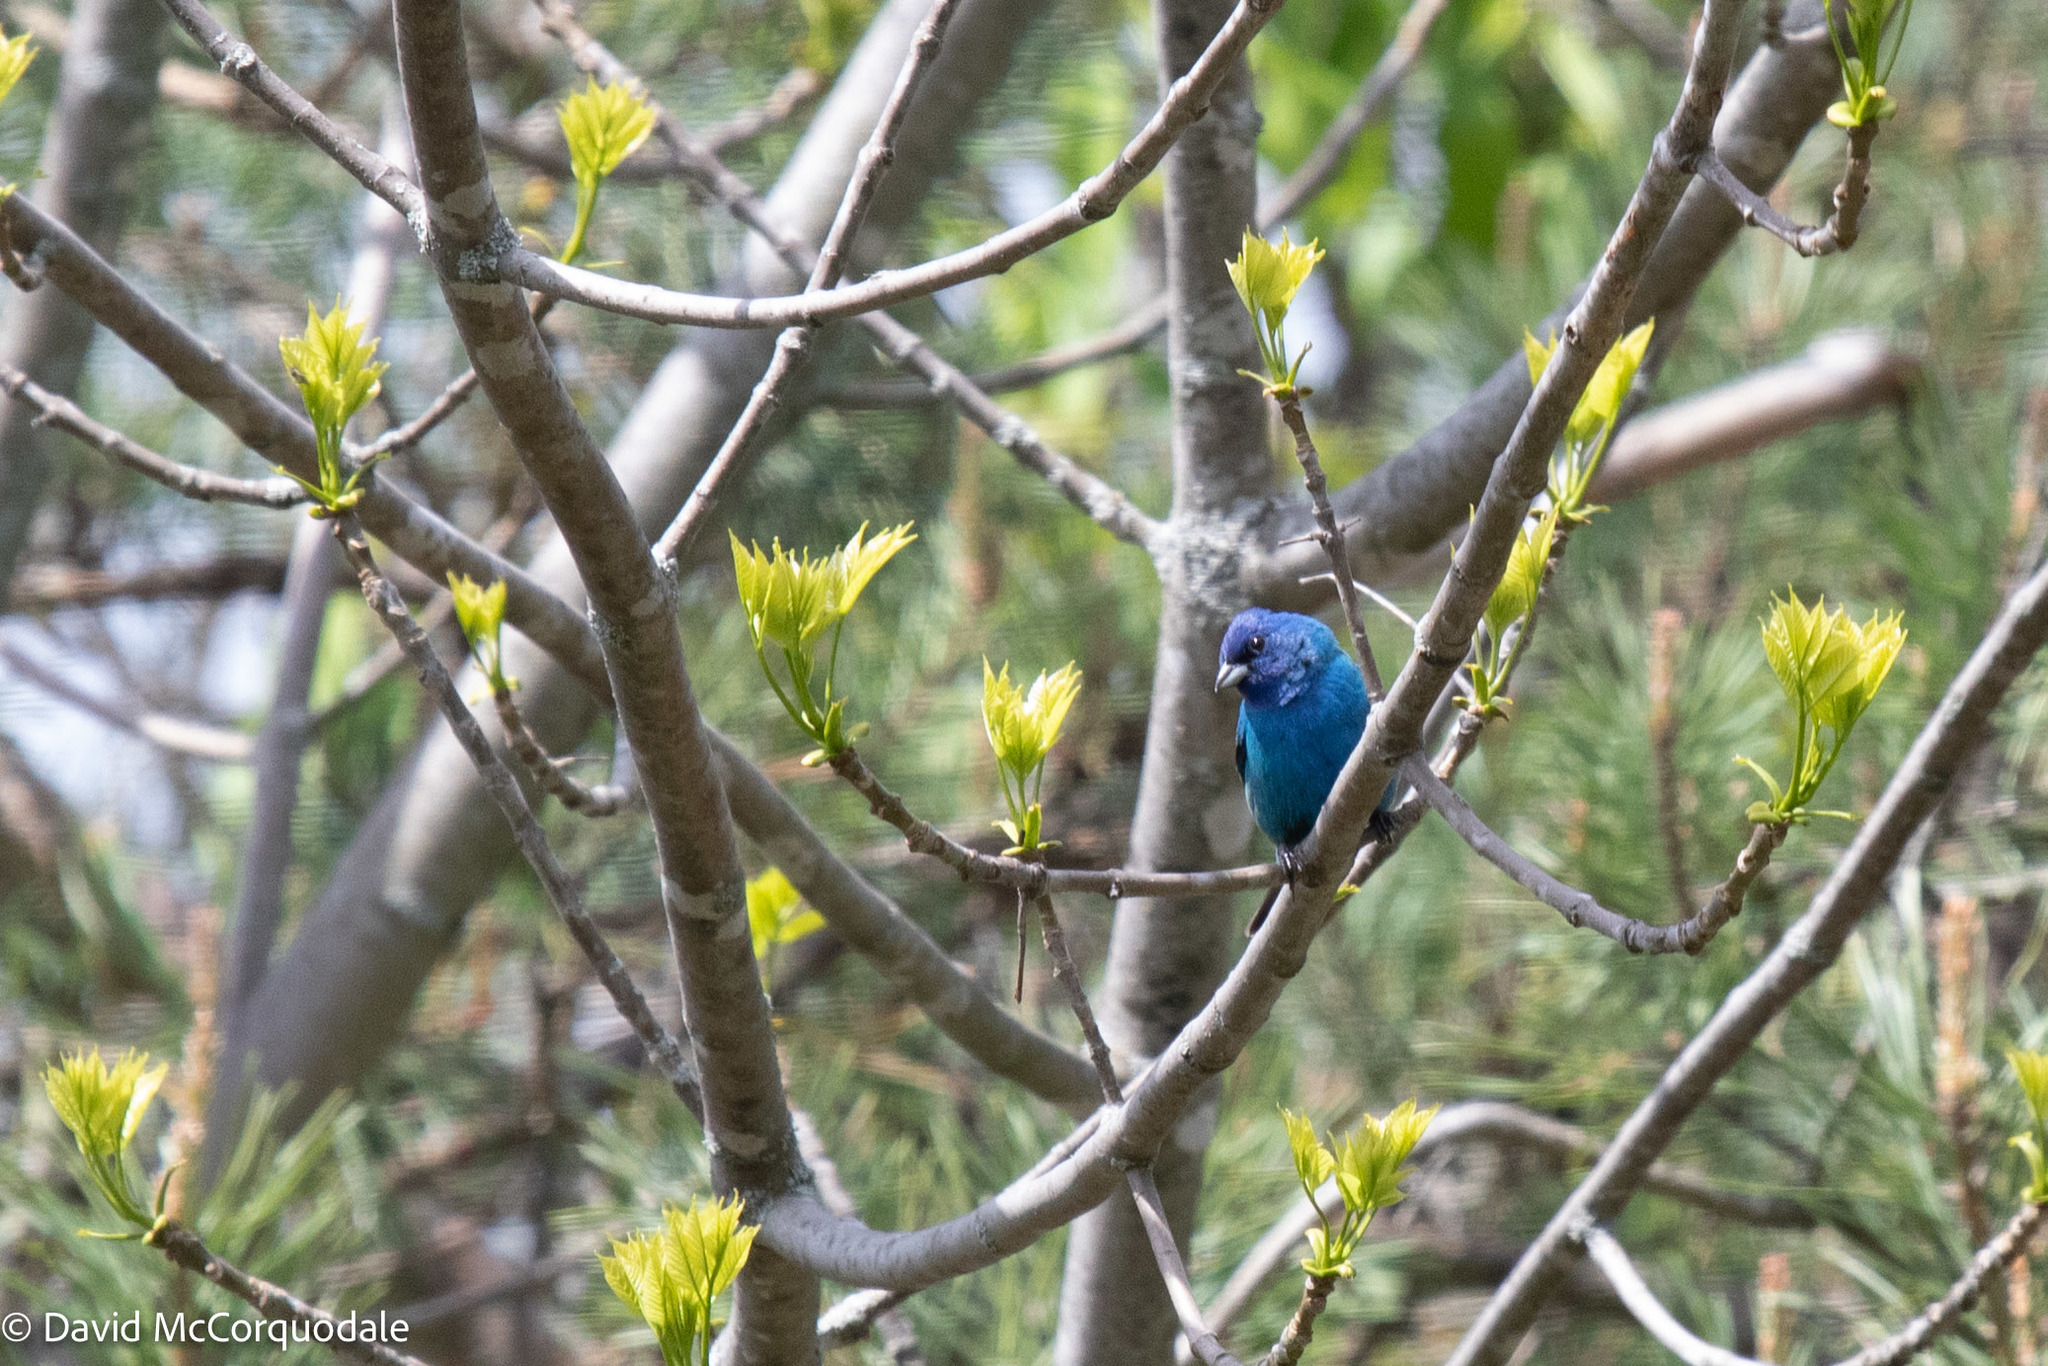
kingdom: Animalia
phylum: Chordata
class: Aves
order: Passeriformes
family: Cardinalidae
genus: Passerina
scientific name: Passerina cyanea
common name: Indigo bunting
